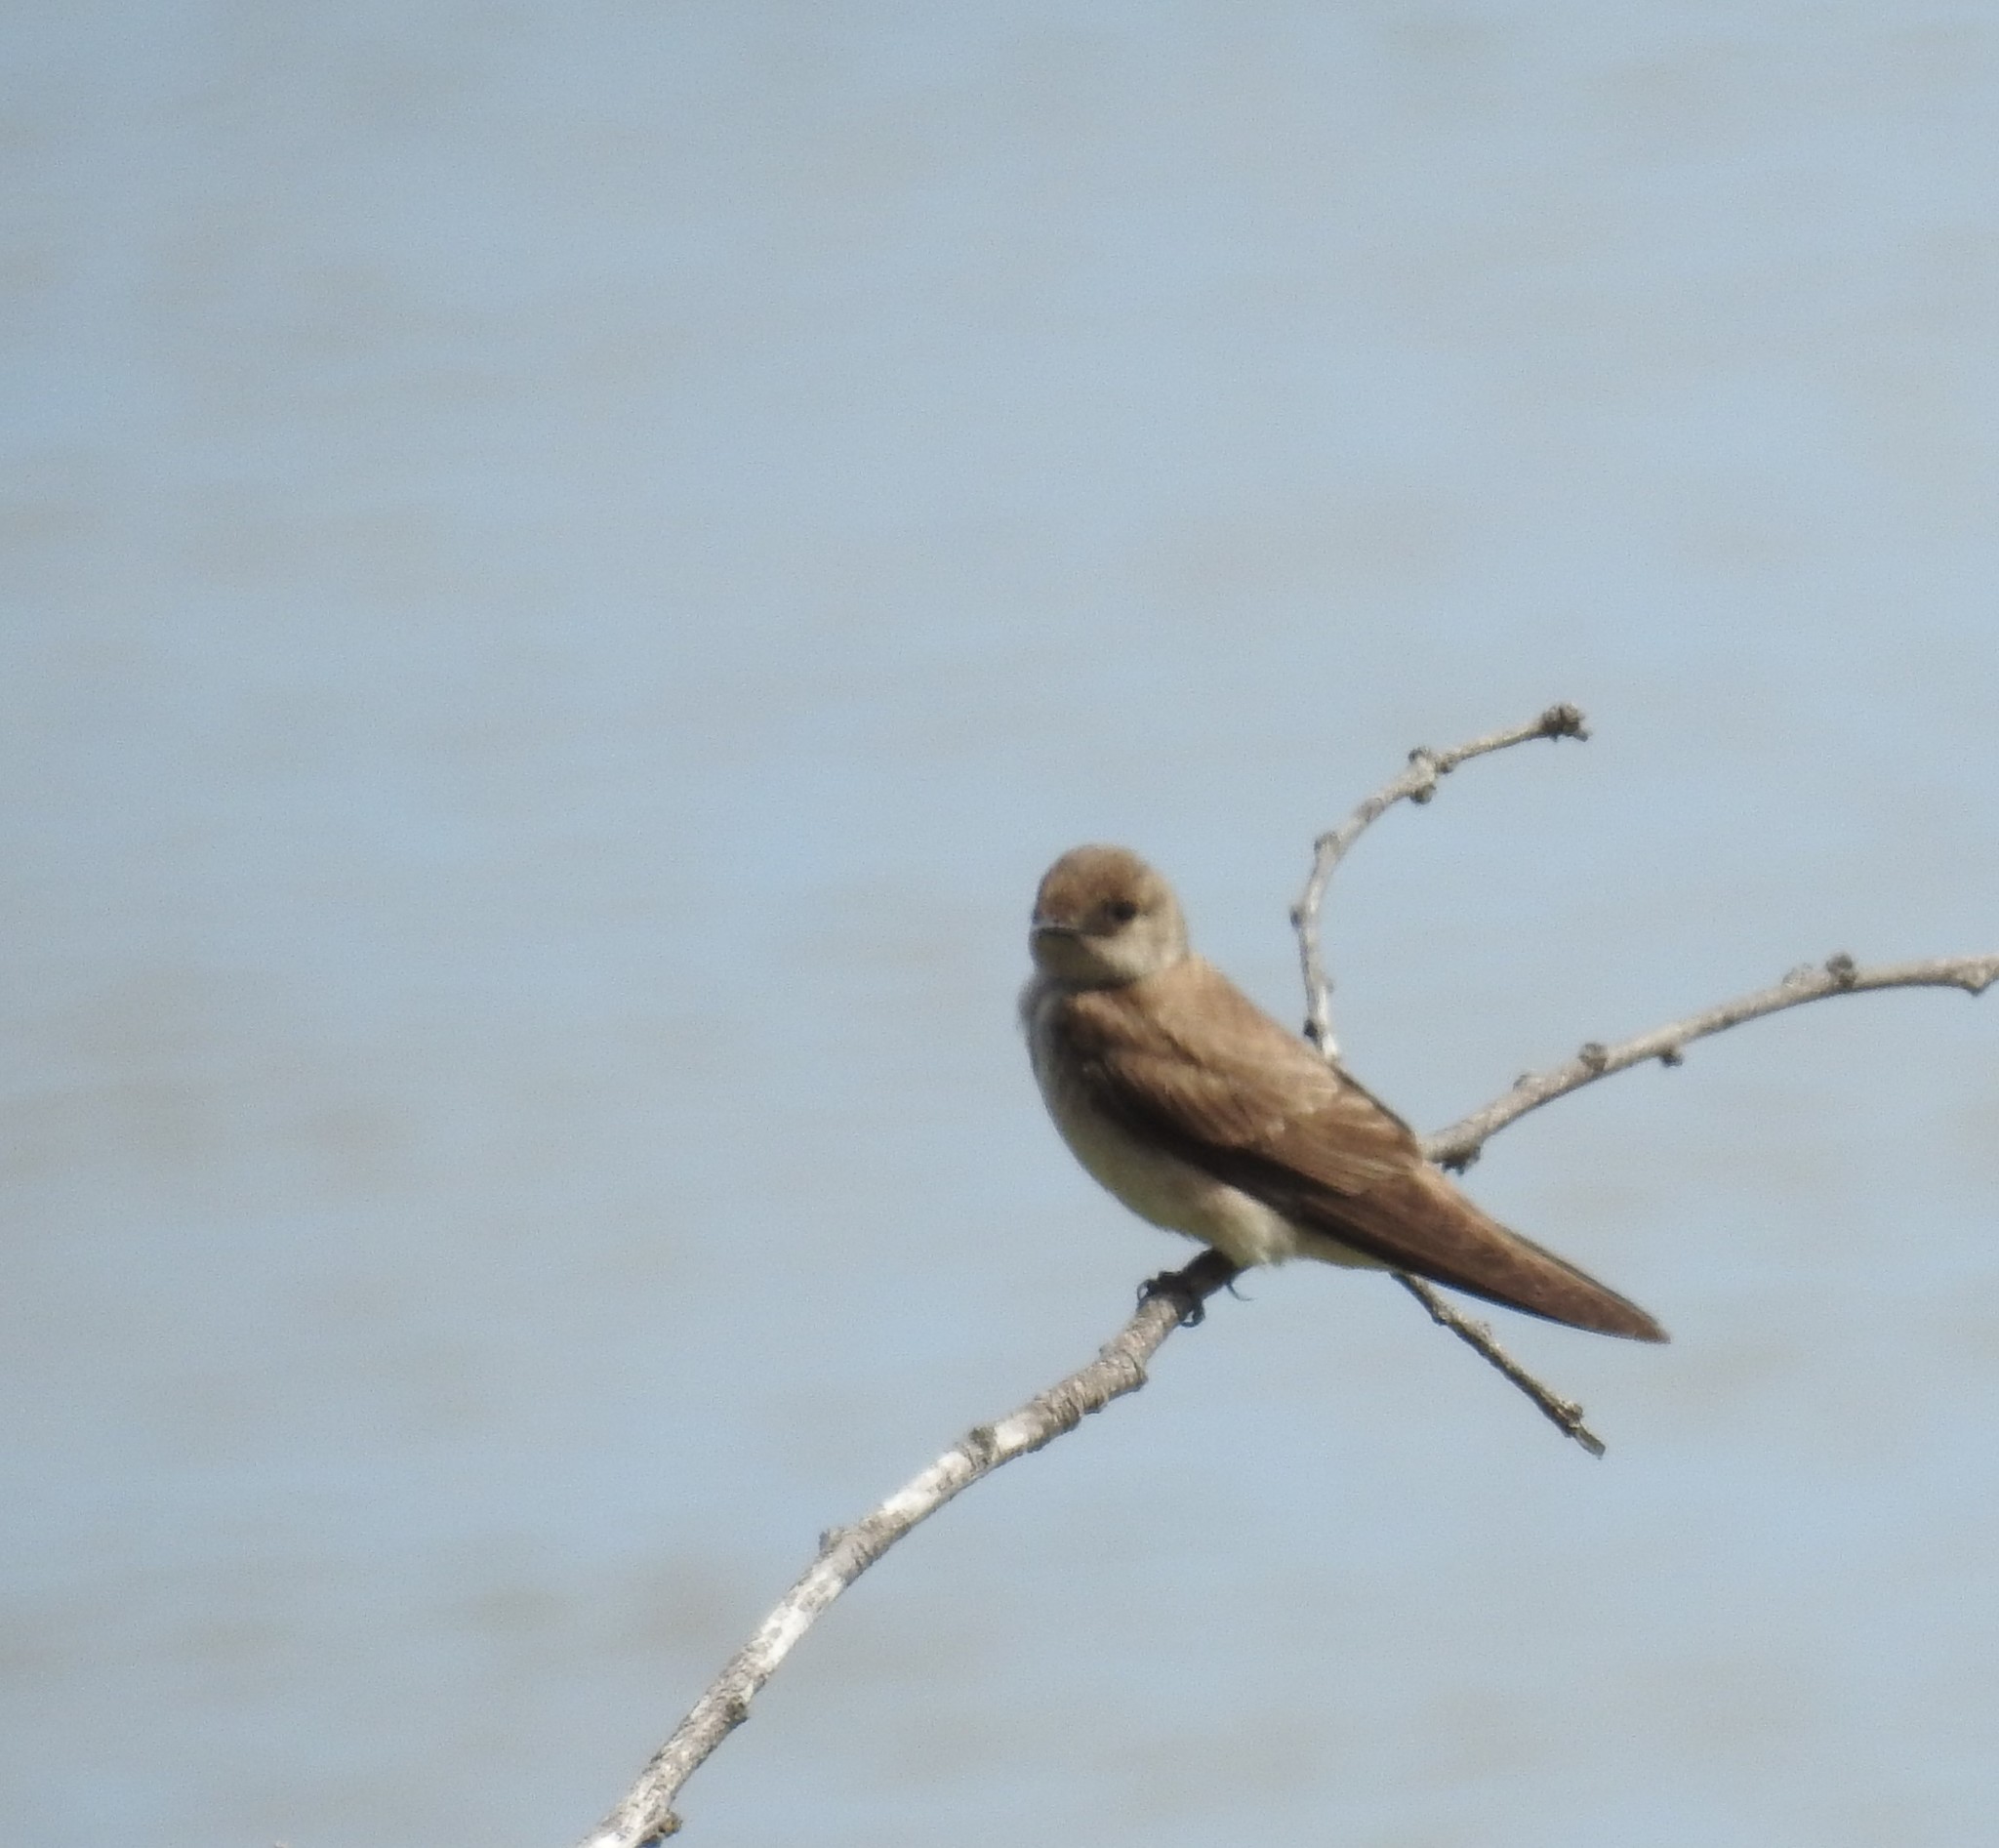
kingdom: Animalia
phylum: Chordata
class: Aves
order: Passeriformes
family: Hirundinidae
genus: Stelgidopteryx
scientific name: Stelgidopteryx serripennis
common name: Northern rough-winged swallow
